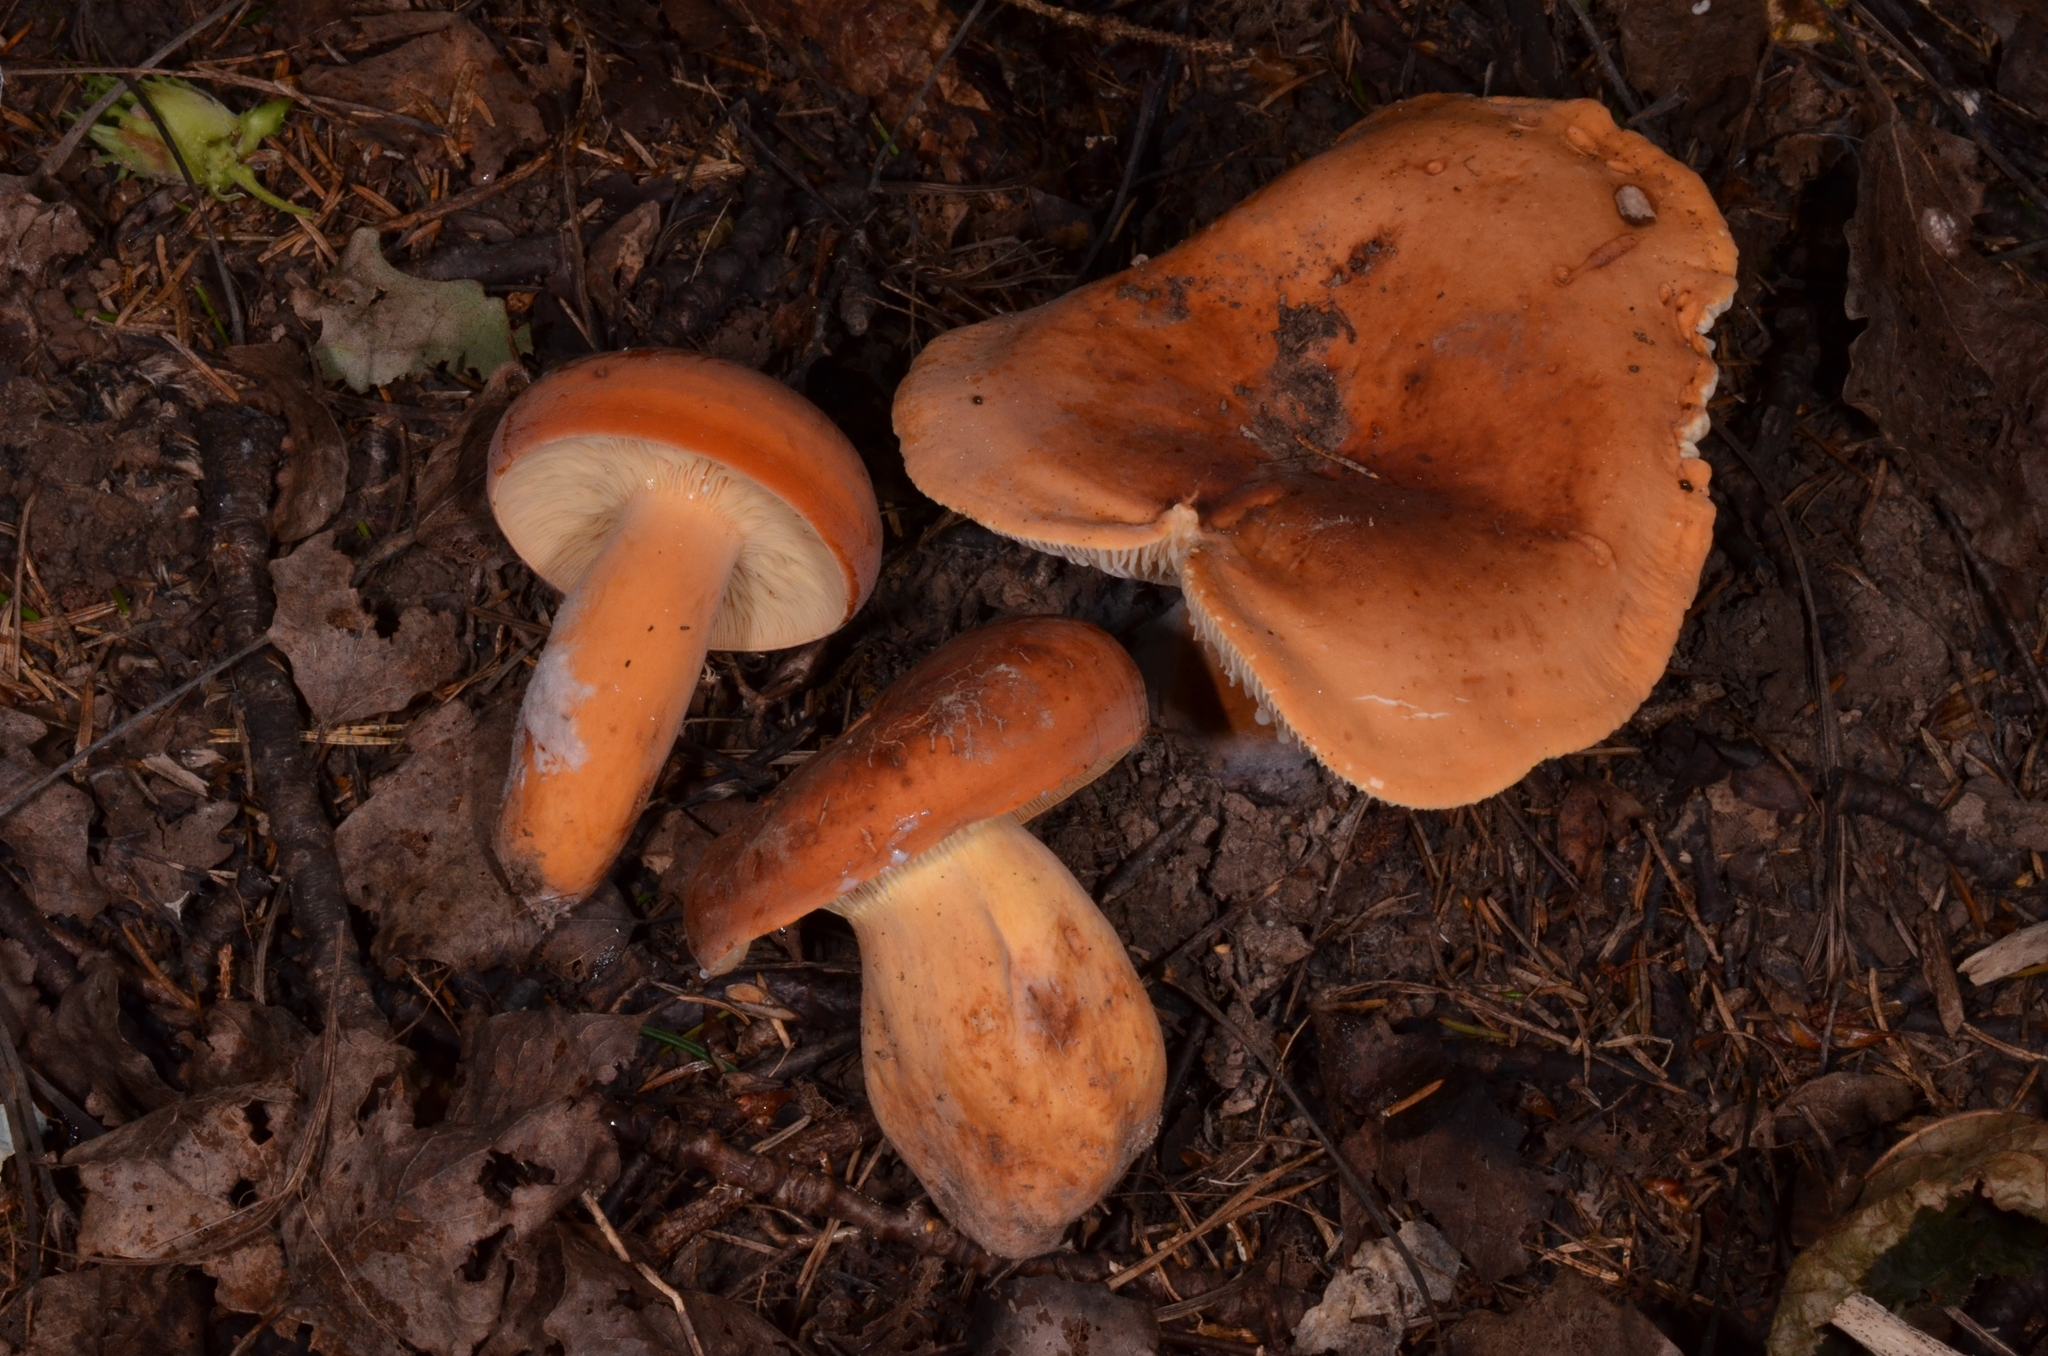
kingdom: Fungi
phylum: Basidiomycota
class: Agaricomycetes
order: Russulales
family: Russulaceae
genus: Lactifluus
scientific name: Lactifluus volemus
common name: Fishy milkcap
